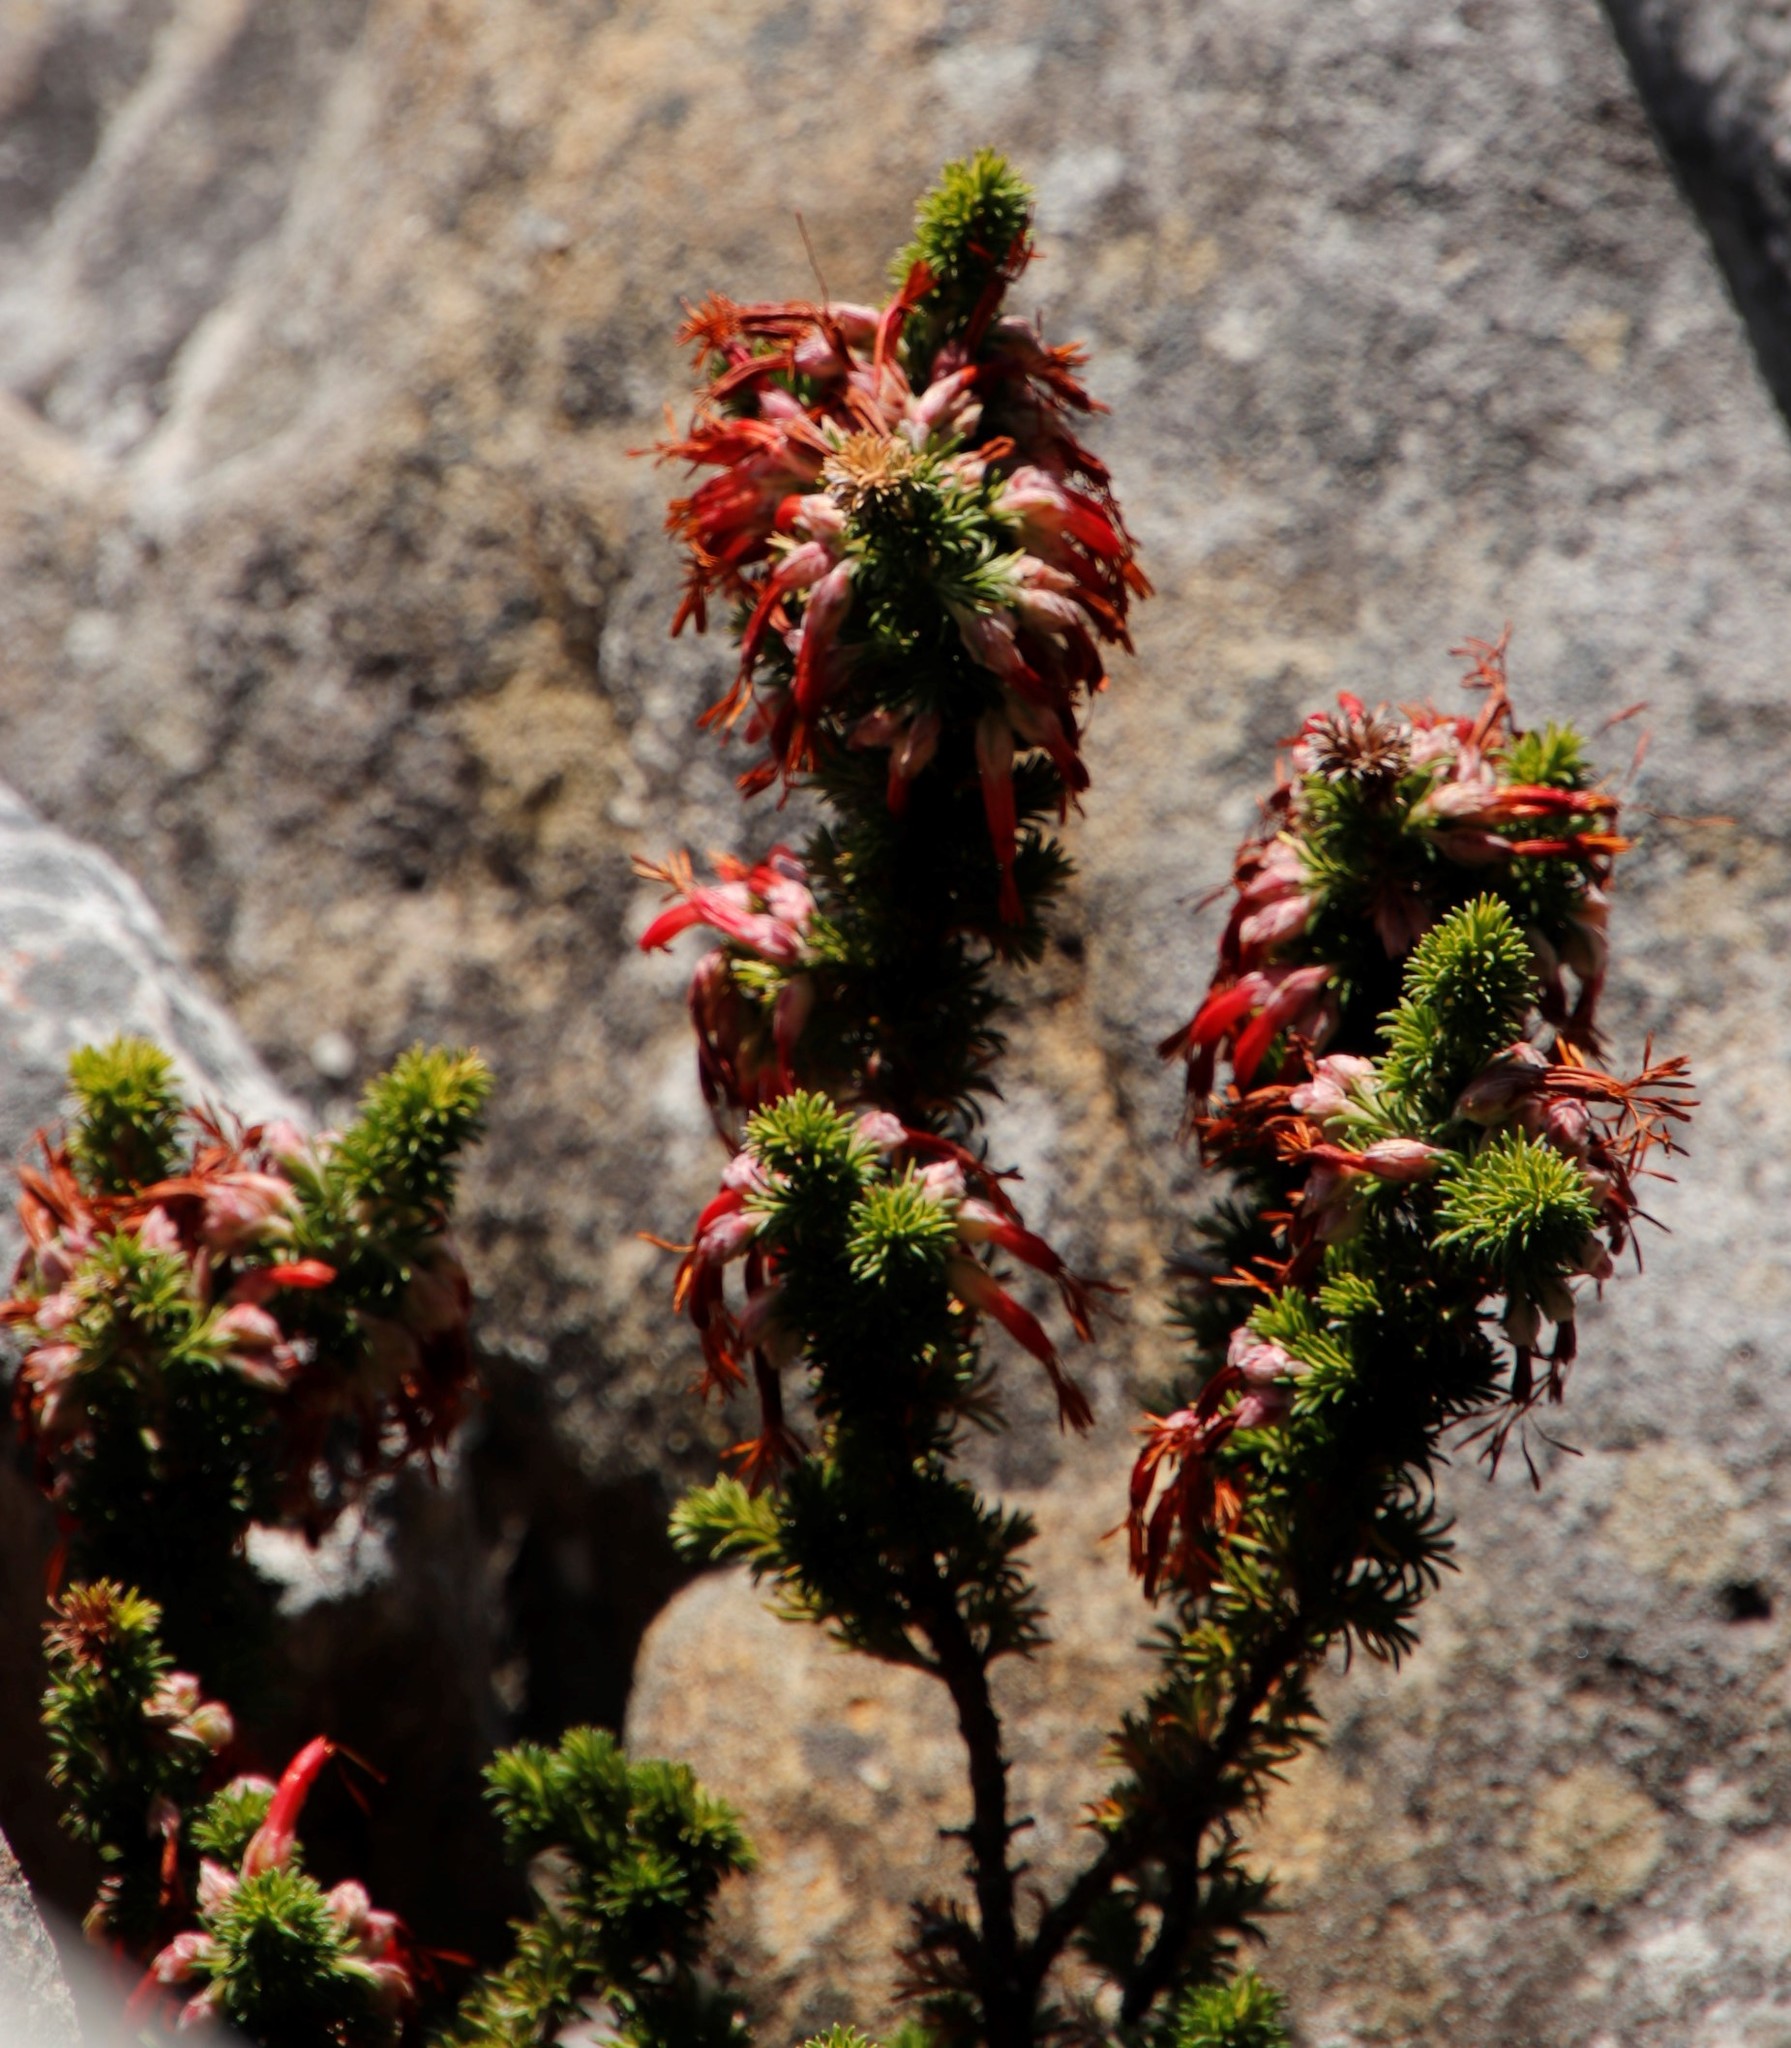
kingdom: Plantae
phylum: Tracheophyta
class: Magnoliopsida
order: Ericales
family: Ericaceae
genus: Erica
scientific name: Erica coccinea
